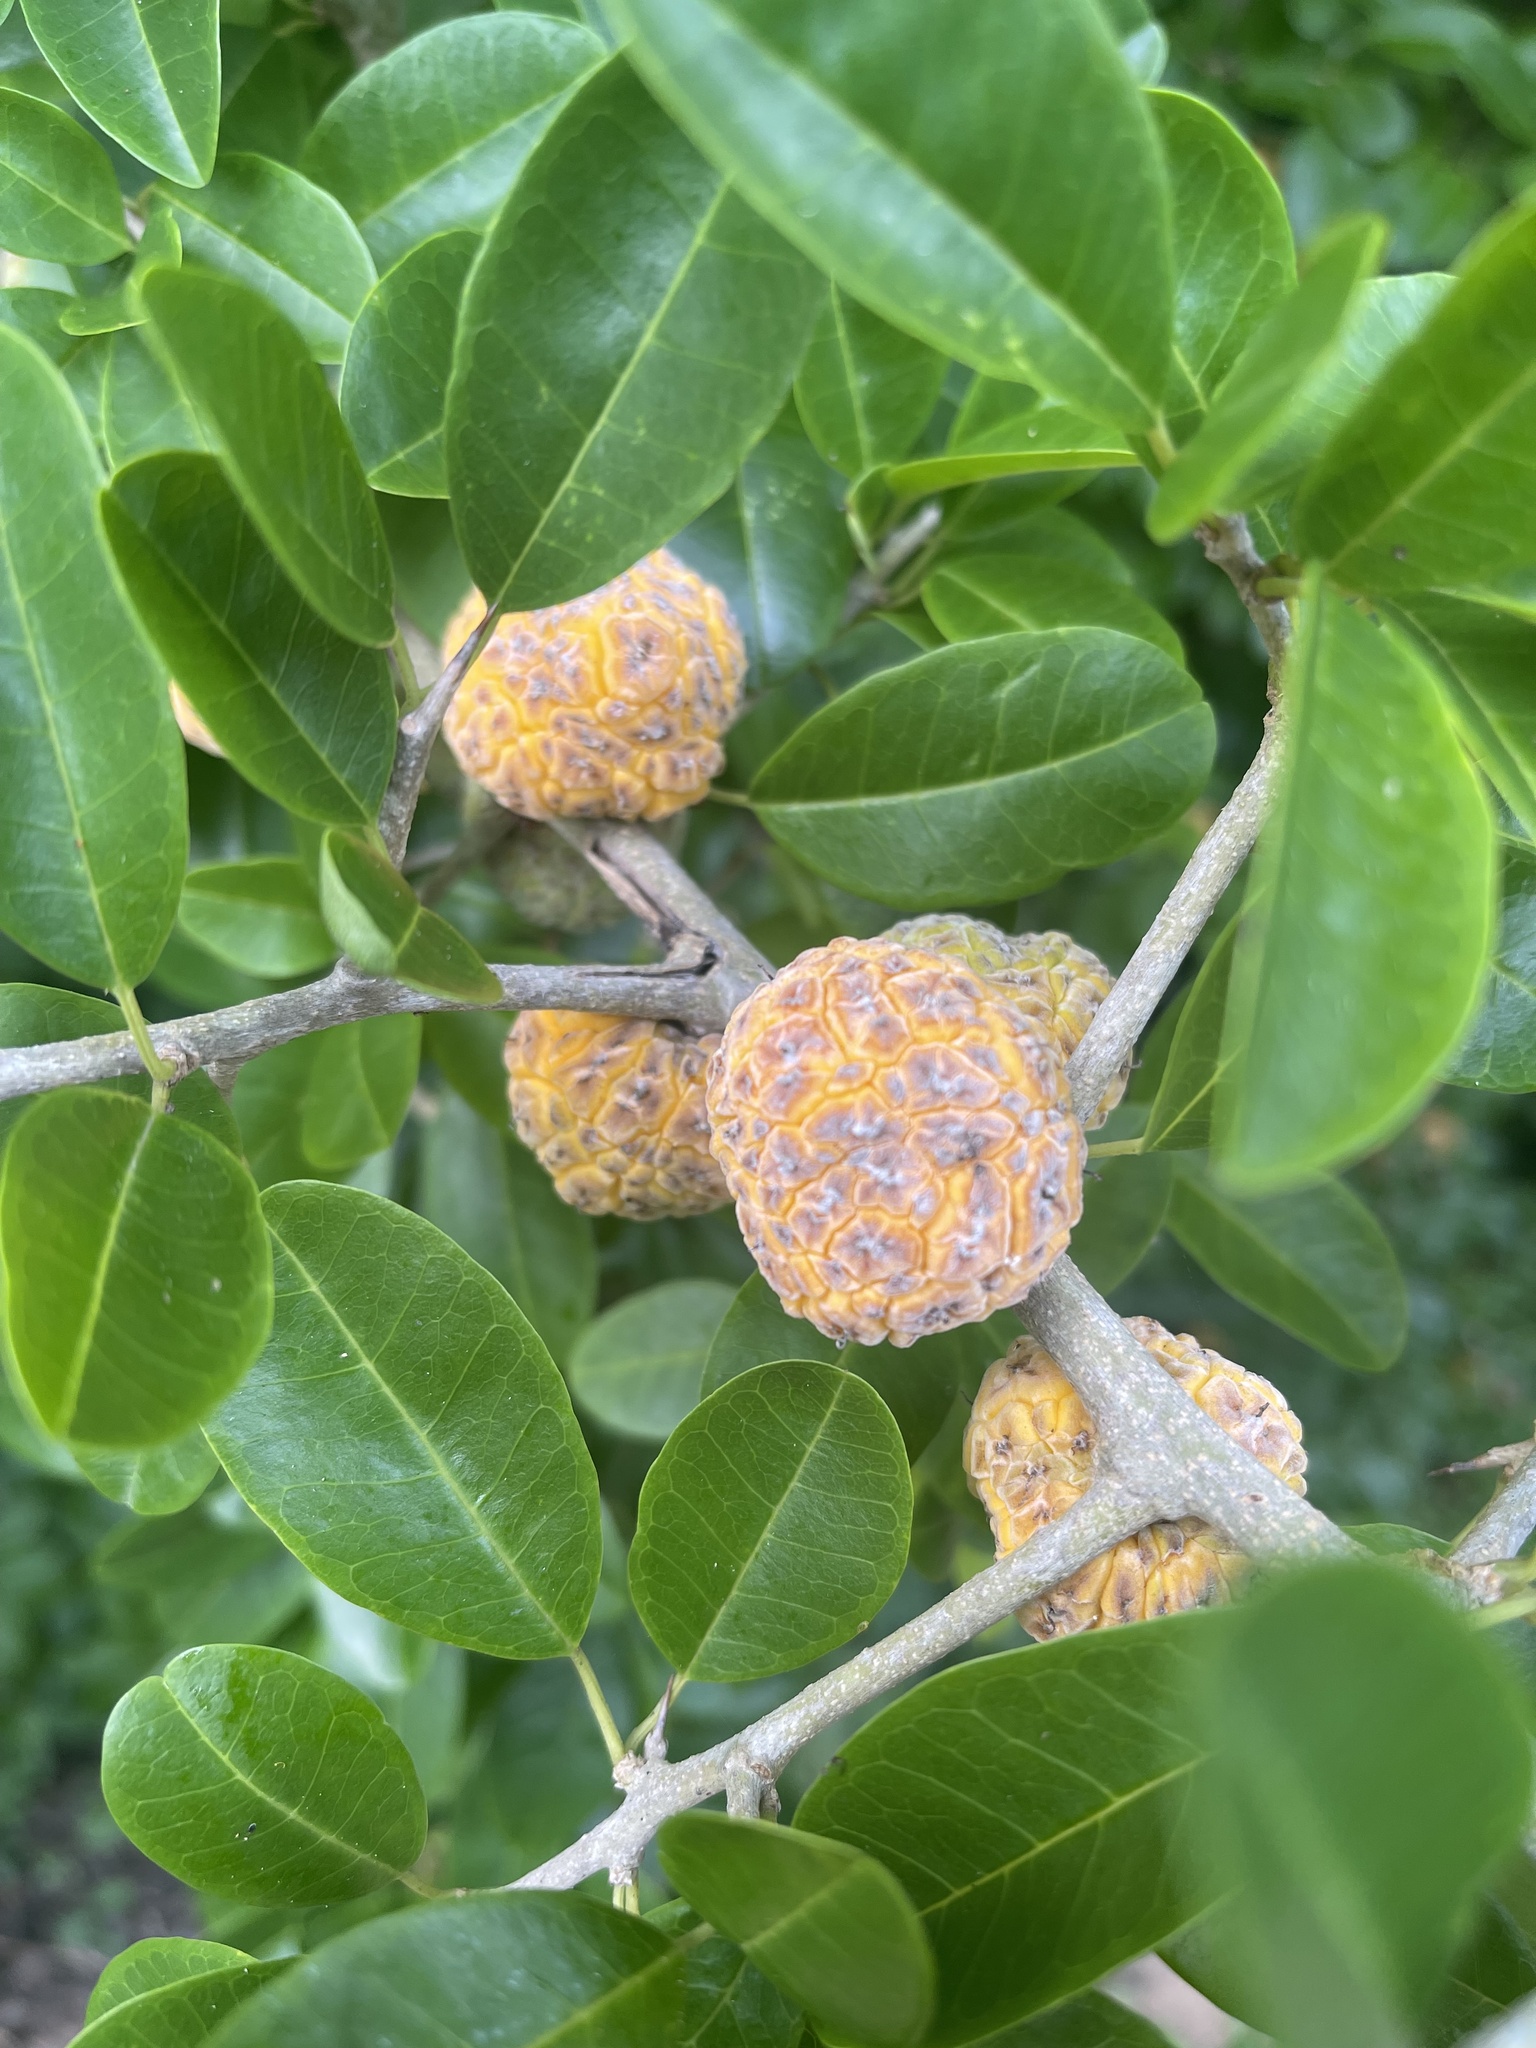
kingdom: Plantae
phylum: Tracheophyta
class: Magnoliopsida
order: Rosales
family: Moraceae
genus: Maclura
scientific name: Maclura africana
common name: African osage orange
